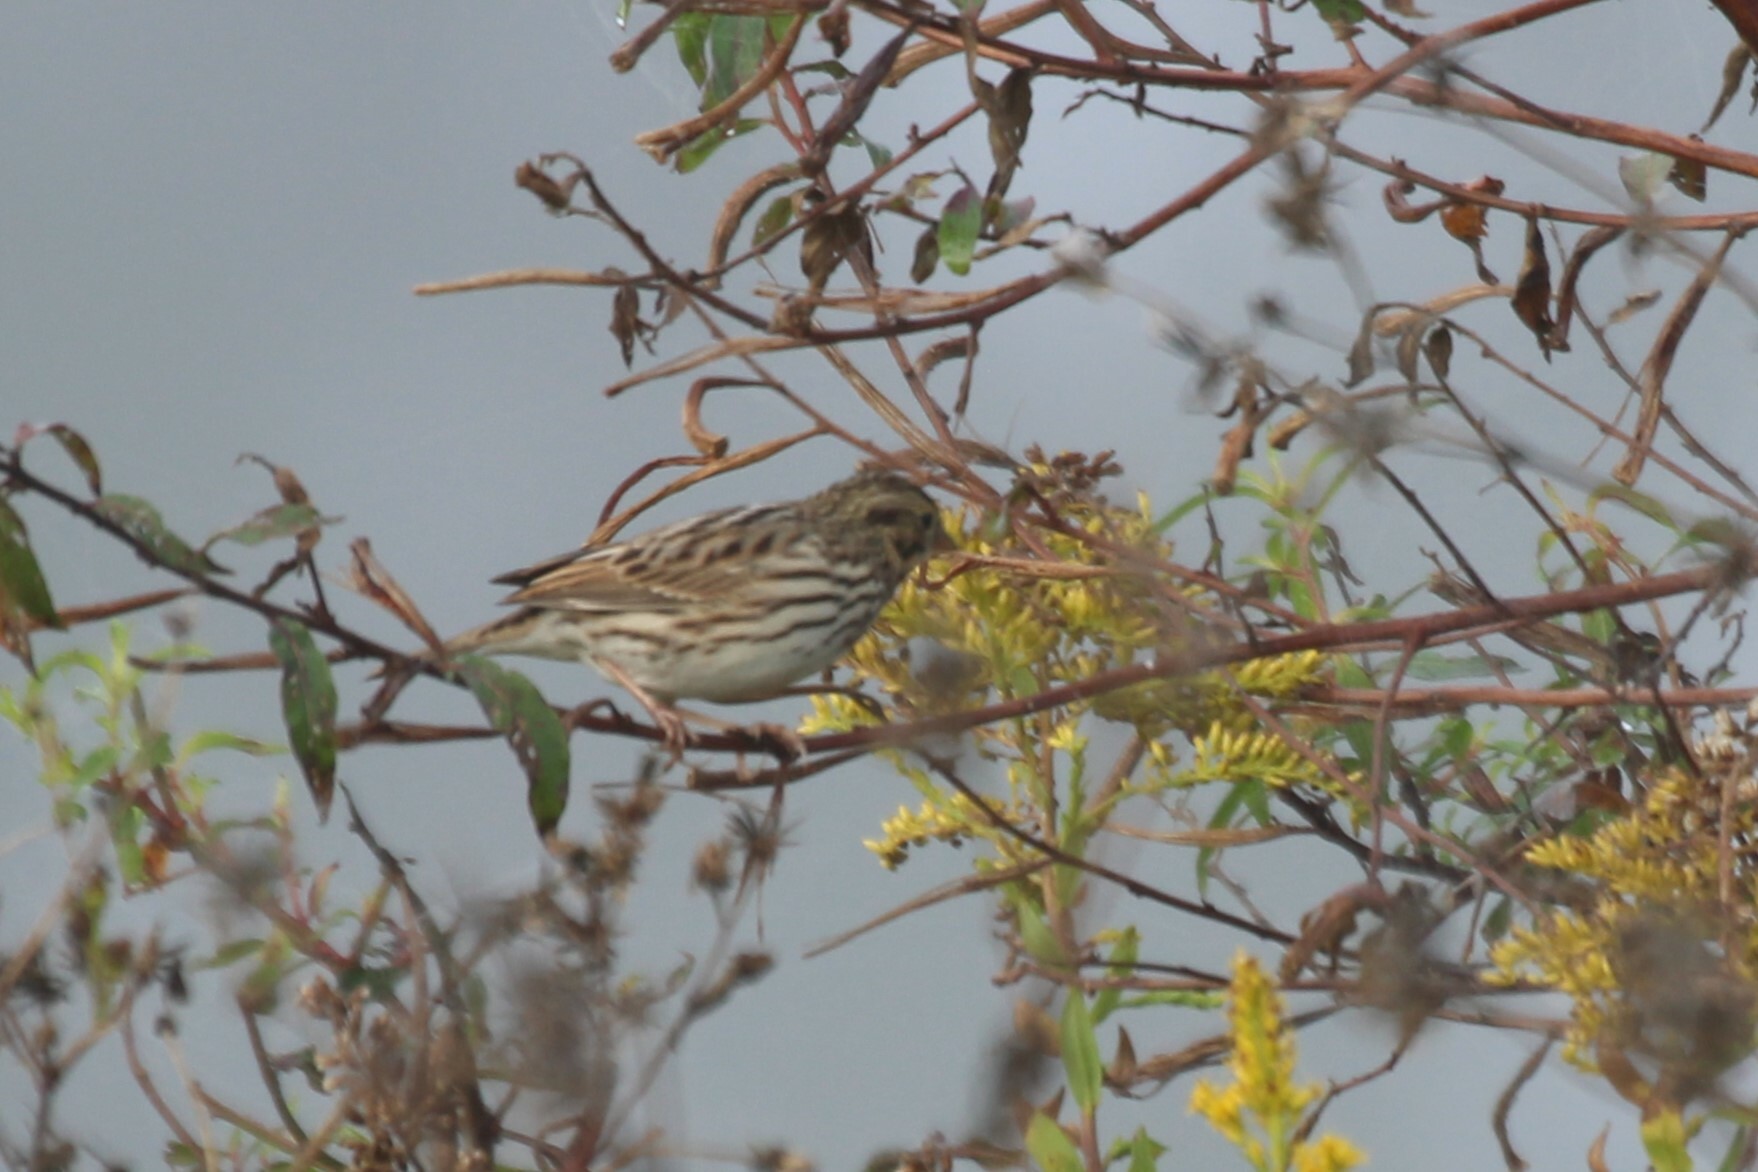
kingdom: Animalia
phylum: Chordata
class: Aves
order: Passeriformes
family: Passerellidae
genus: Passerculus
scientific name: Passerculus sandwichensis
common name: Savannah sparrow
